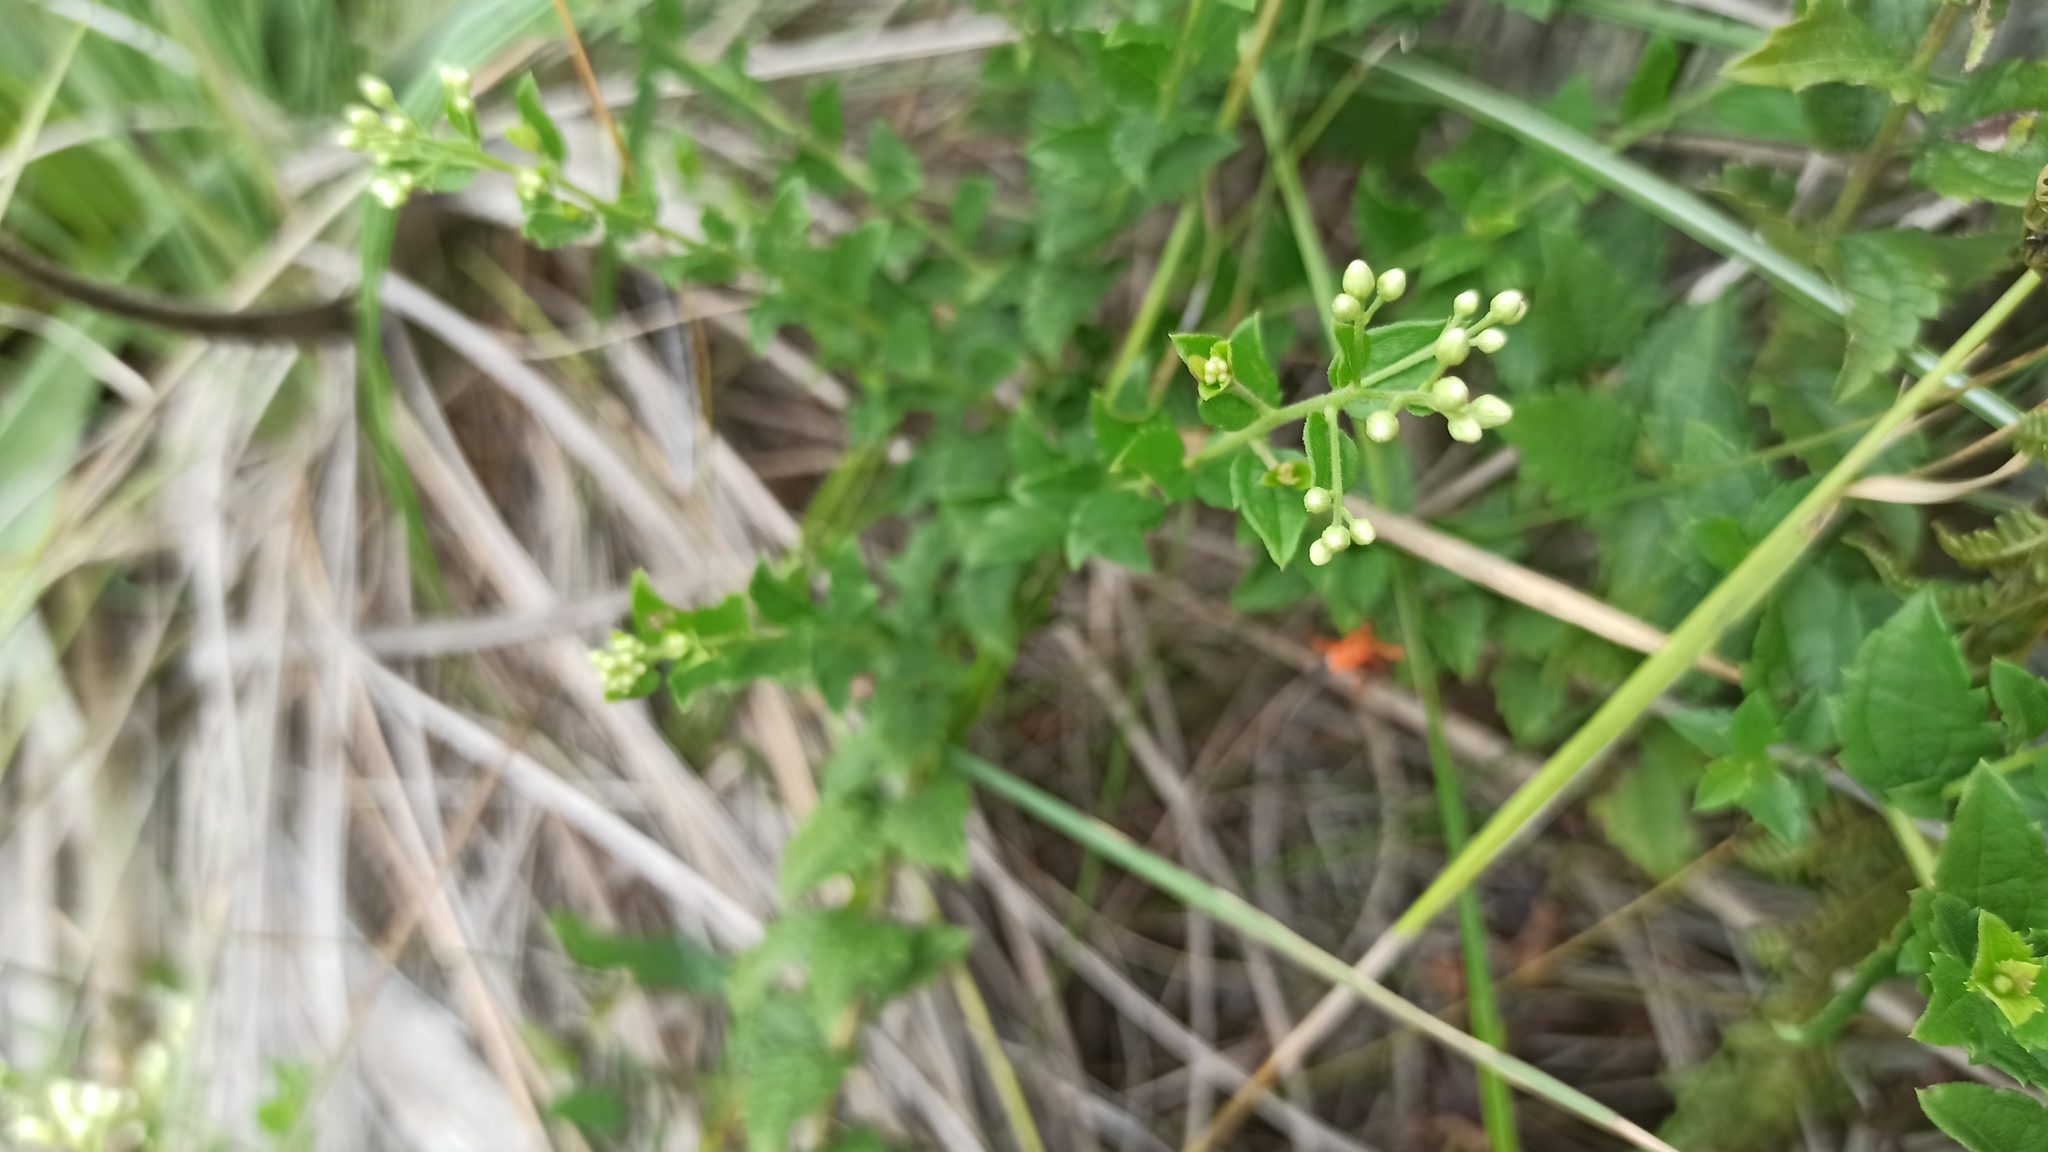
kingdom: Plantae
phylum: Tracheophyta
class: Magnoliopsida
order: Asterales
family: Asteraceae
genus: Baccharis
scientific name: Baccharis anomala
